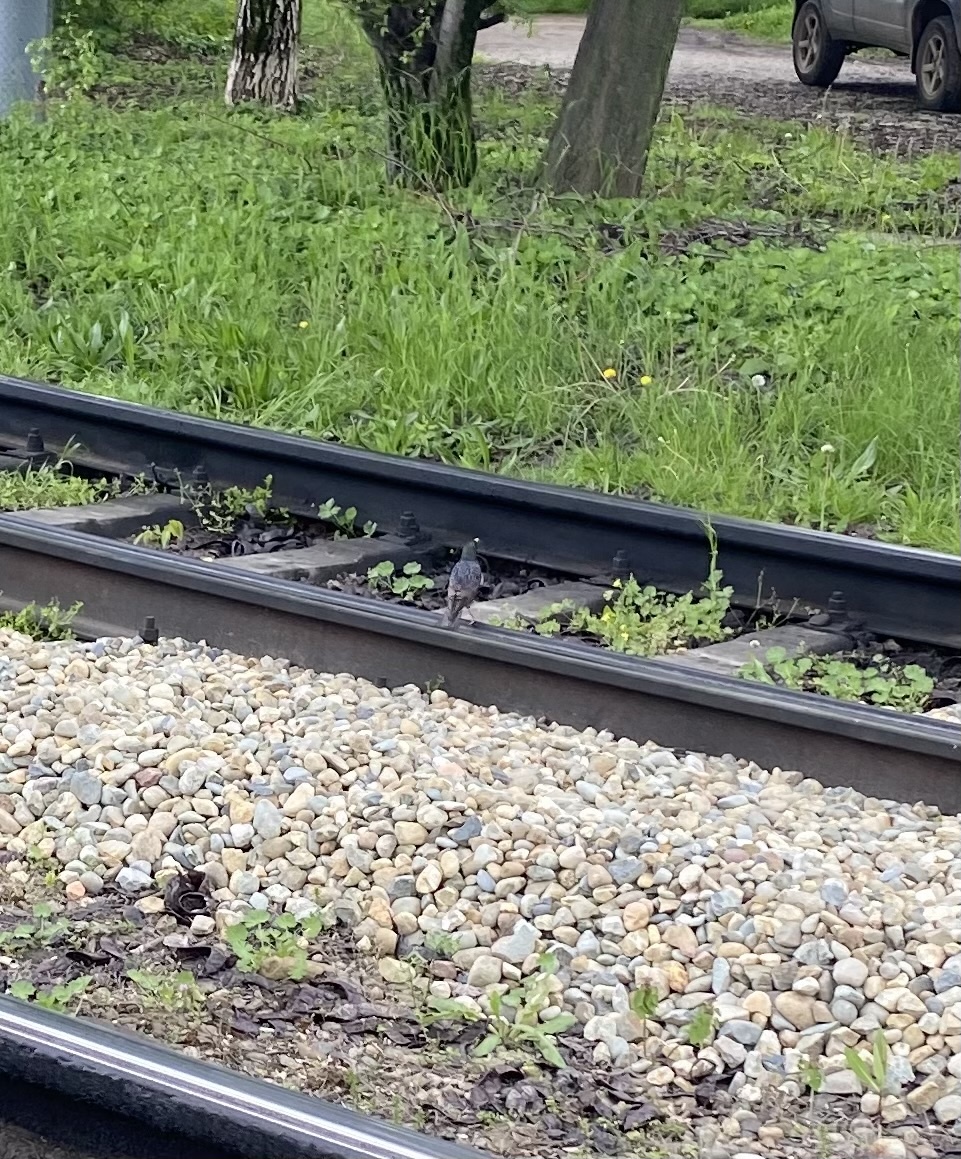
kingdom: Animalia
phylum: Chordata
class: Aves
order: Passeriformes
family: Sturnidae
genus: Sturnus
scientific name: Sturnus vulgaris
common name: Common starling
